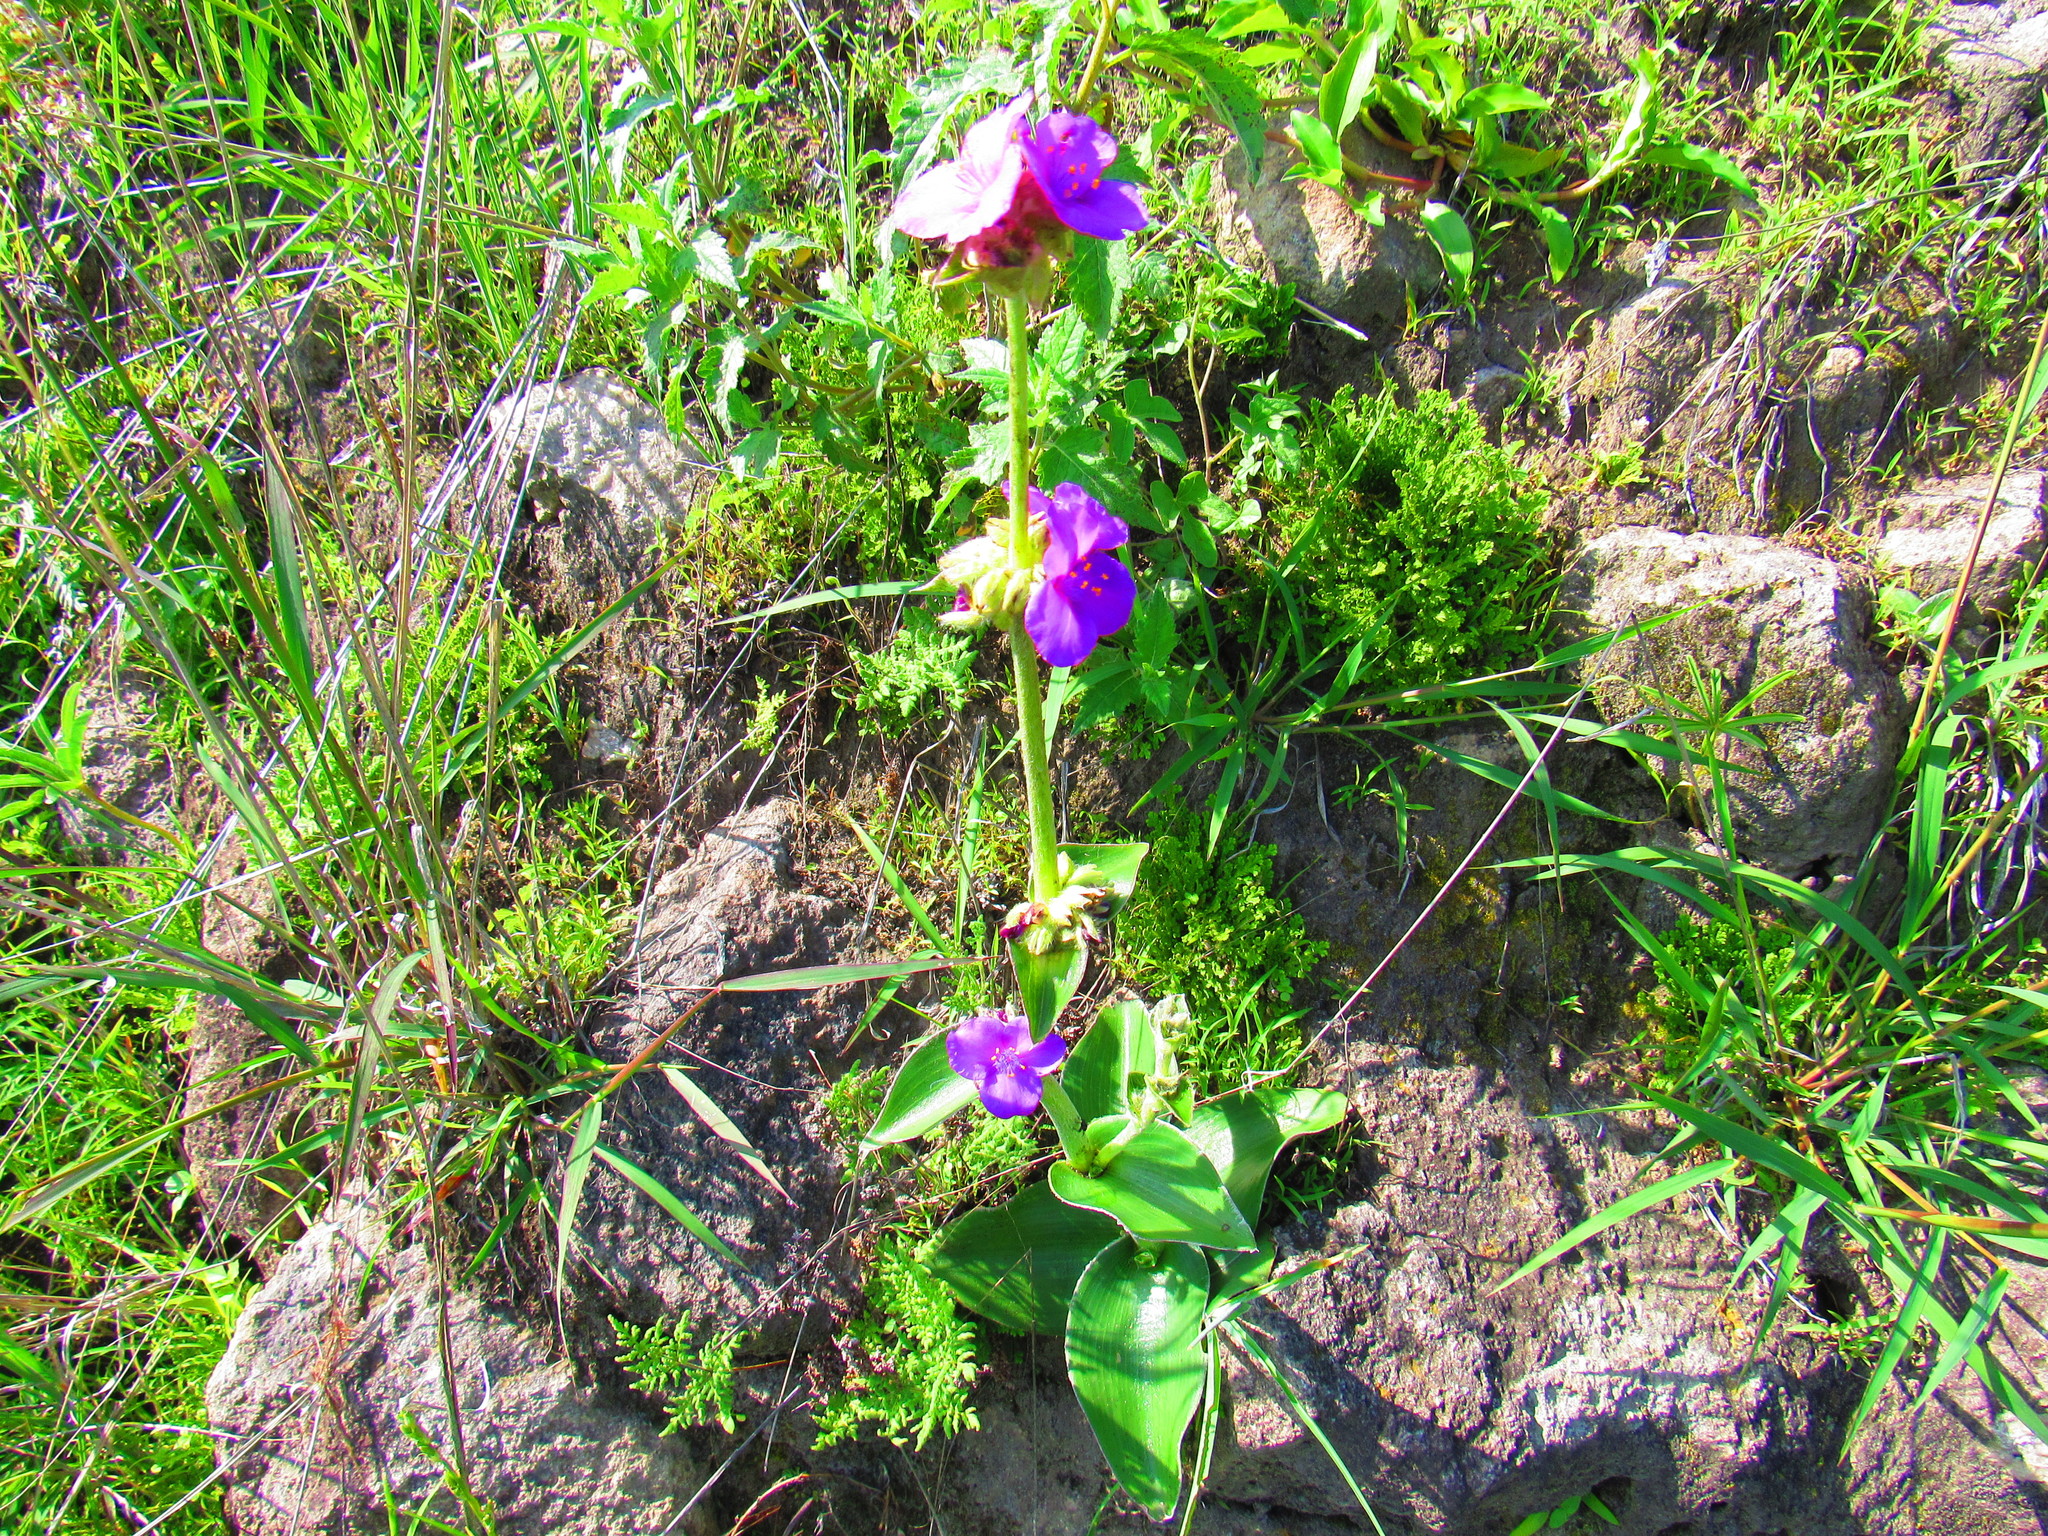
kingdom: Plantae
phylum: Tracheophyta
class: Liliopsida
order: Commelinales
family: Commelinaceae
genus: Tradescantia
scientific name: Tradescantia crassifolia
